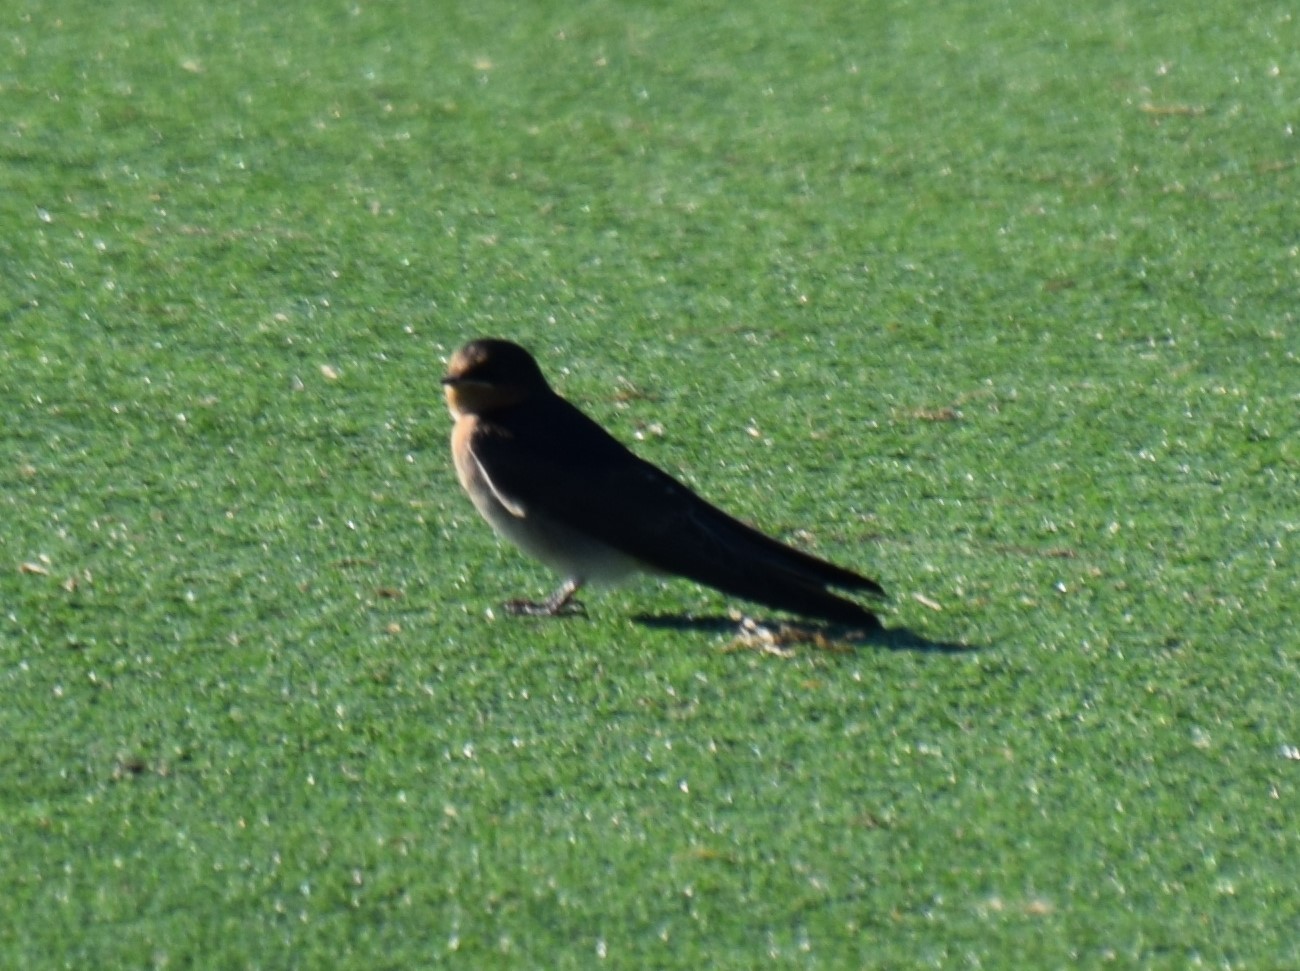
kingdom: Animalia
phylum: Chordata
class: Aves
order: Passeriformes
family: Hirundinidae
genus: Hirundo
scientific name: Hirundo neoxena
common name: Welcome swallow
